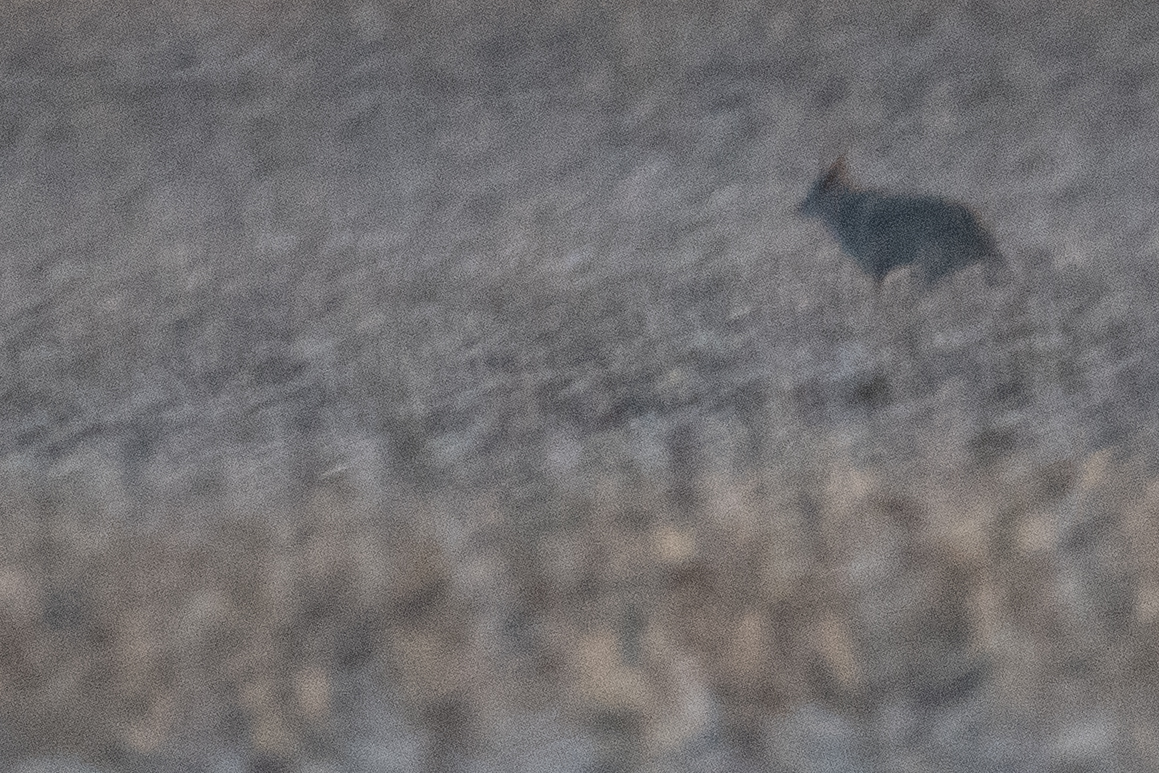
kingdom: Animalia
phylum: Chordata
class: Mammalia
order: Carnivora
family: Canidae
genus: Canis
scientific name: Canis latrans
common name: Coyote
